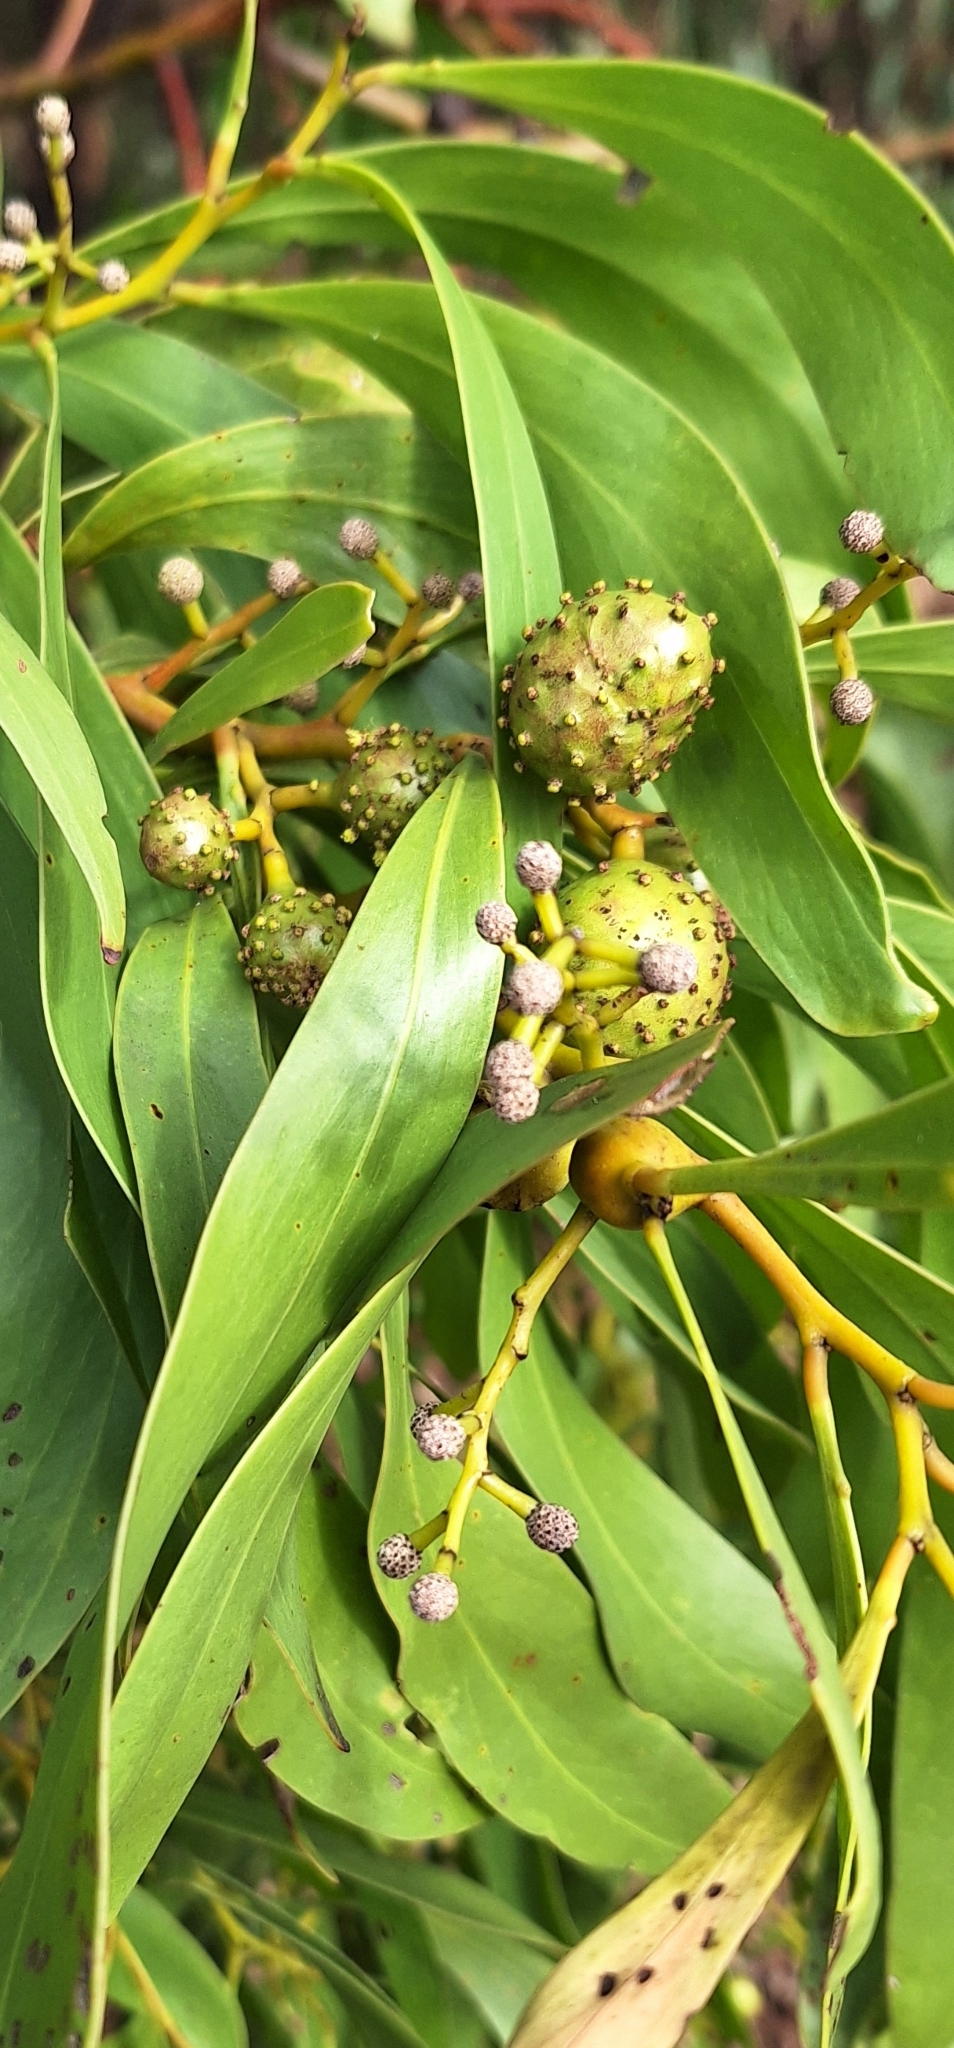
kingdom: Animalia
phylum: Arthropoda
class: Insecta
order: Hymenoptera
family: Pteromalidae
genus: Trichilogaster
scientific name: Trichilogaster signiventris
